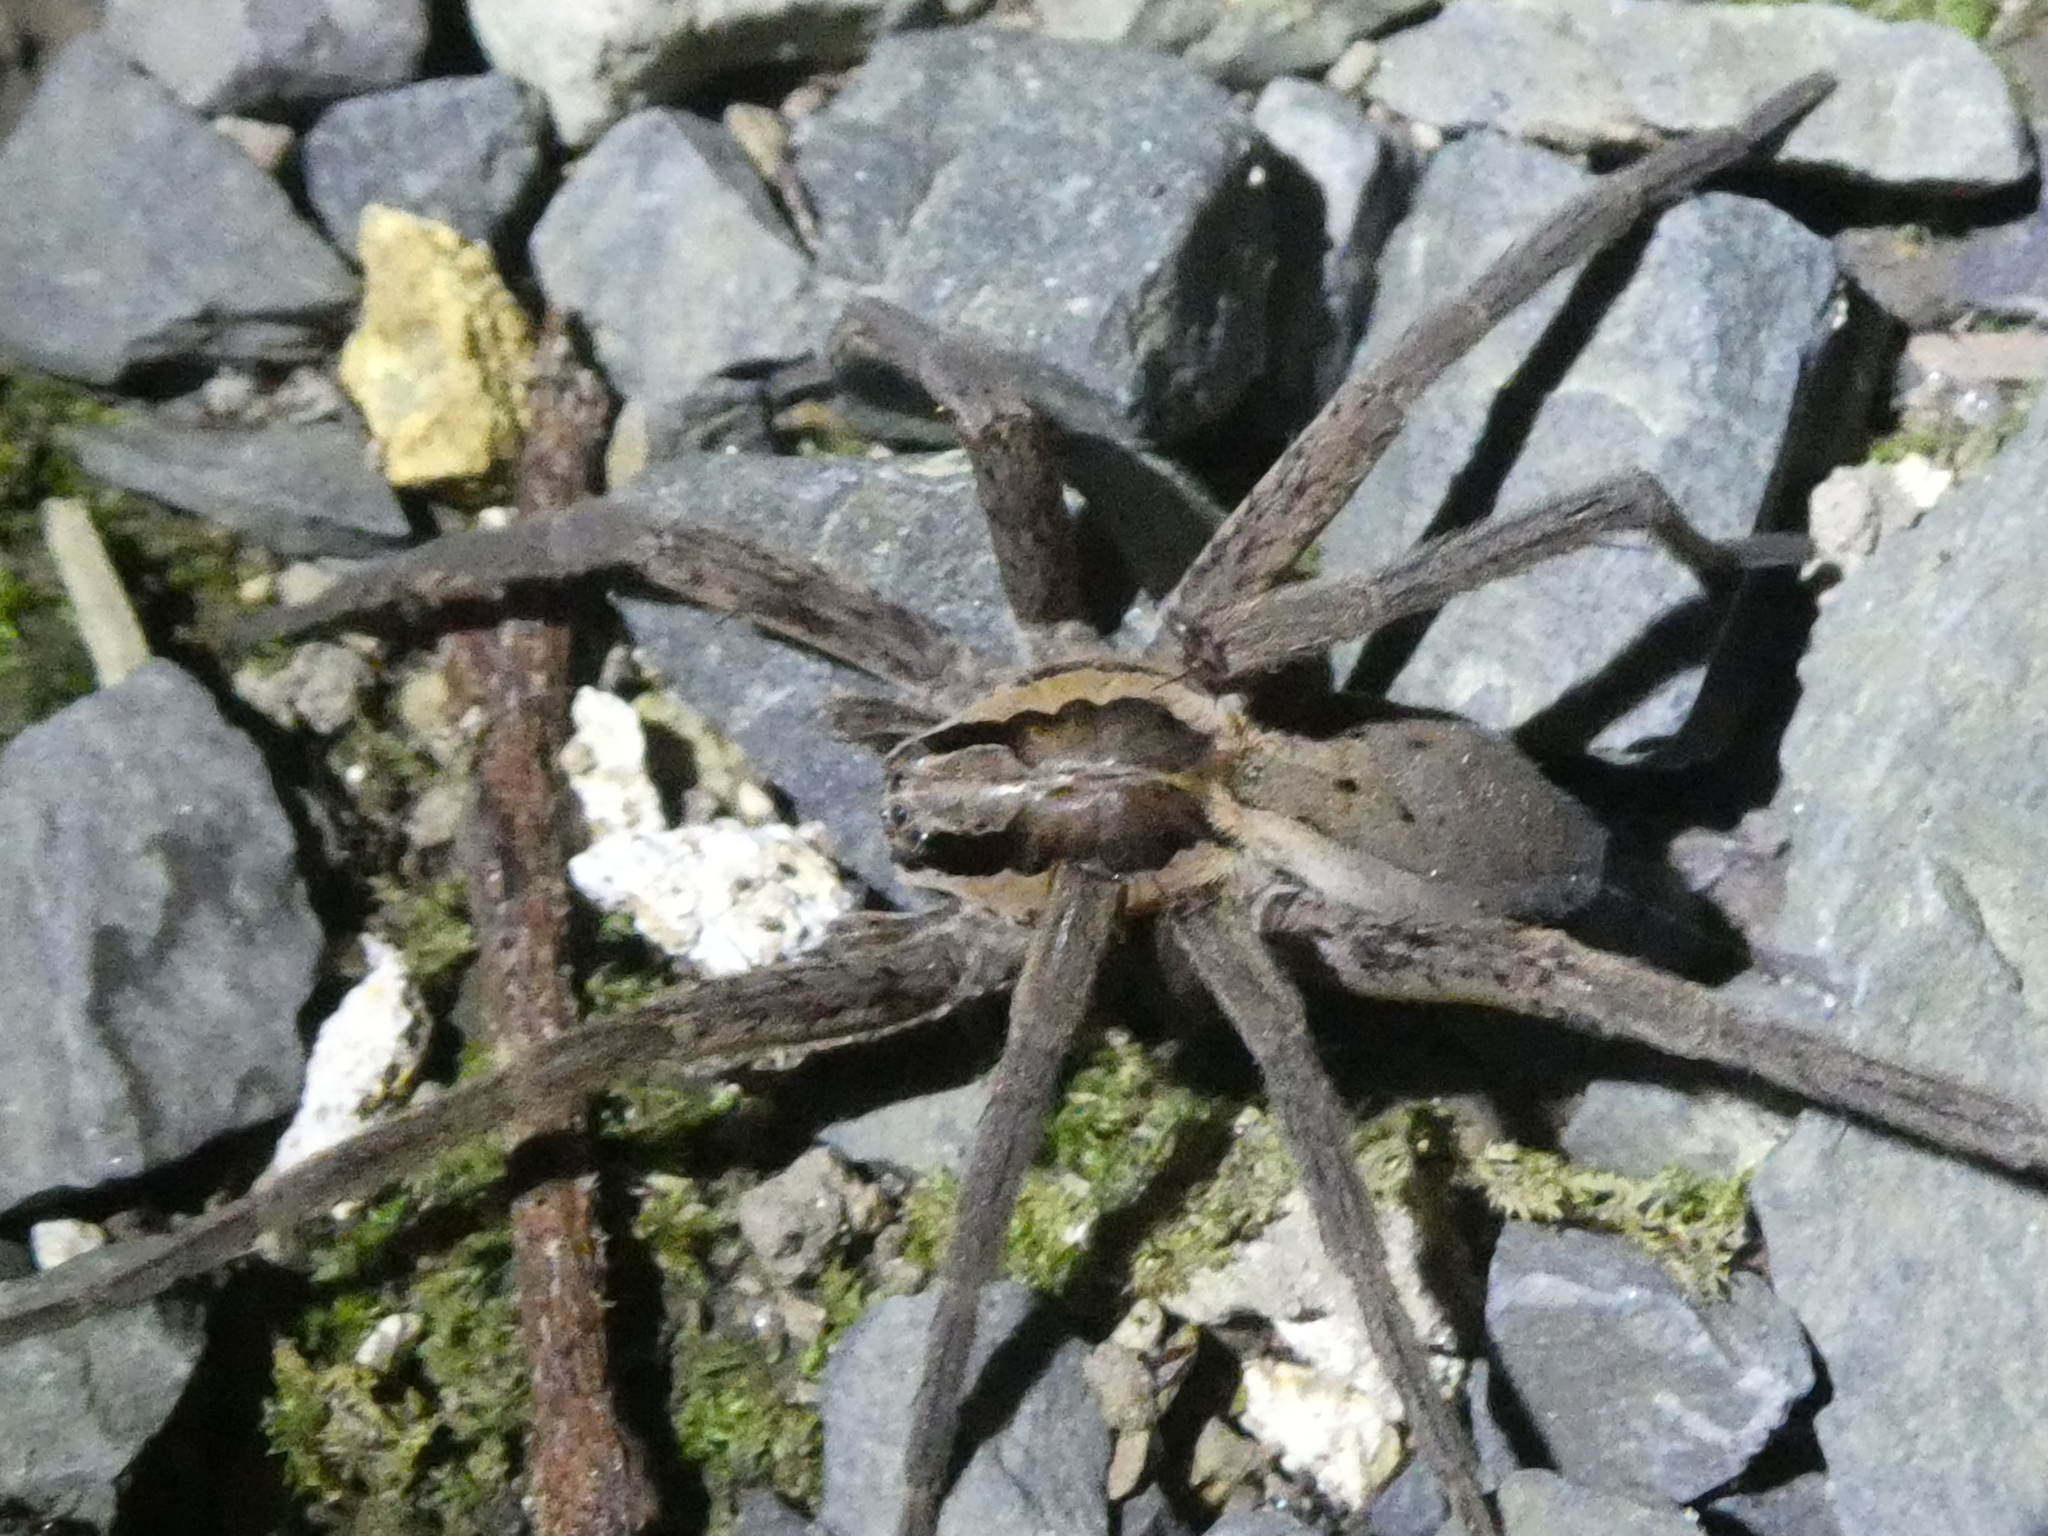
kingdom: Animalia
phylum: Arthropoda
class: Arachnida
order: Araneae
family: Pisauridae
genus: Dolomedes
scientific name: Dolomedes minor
